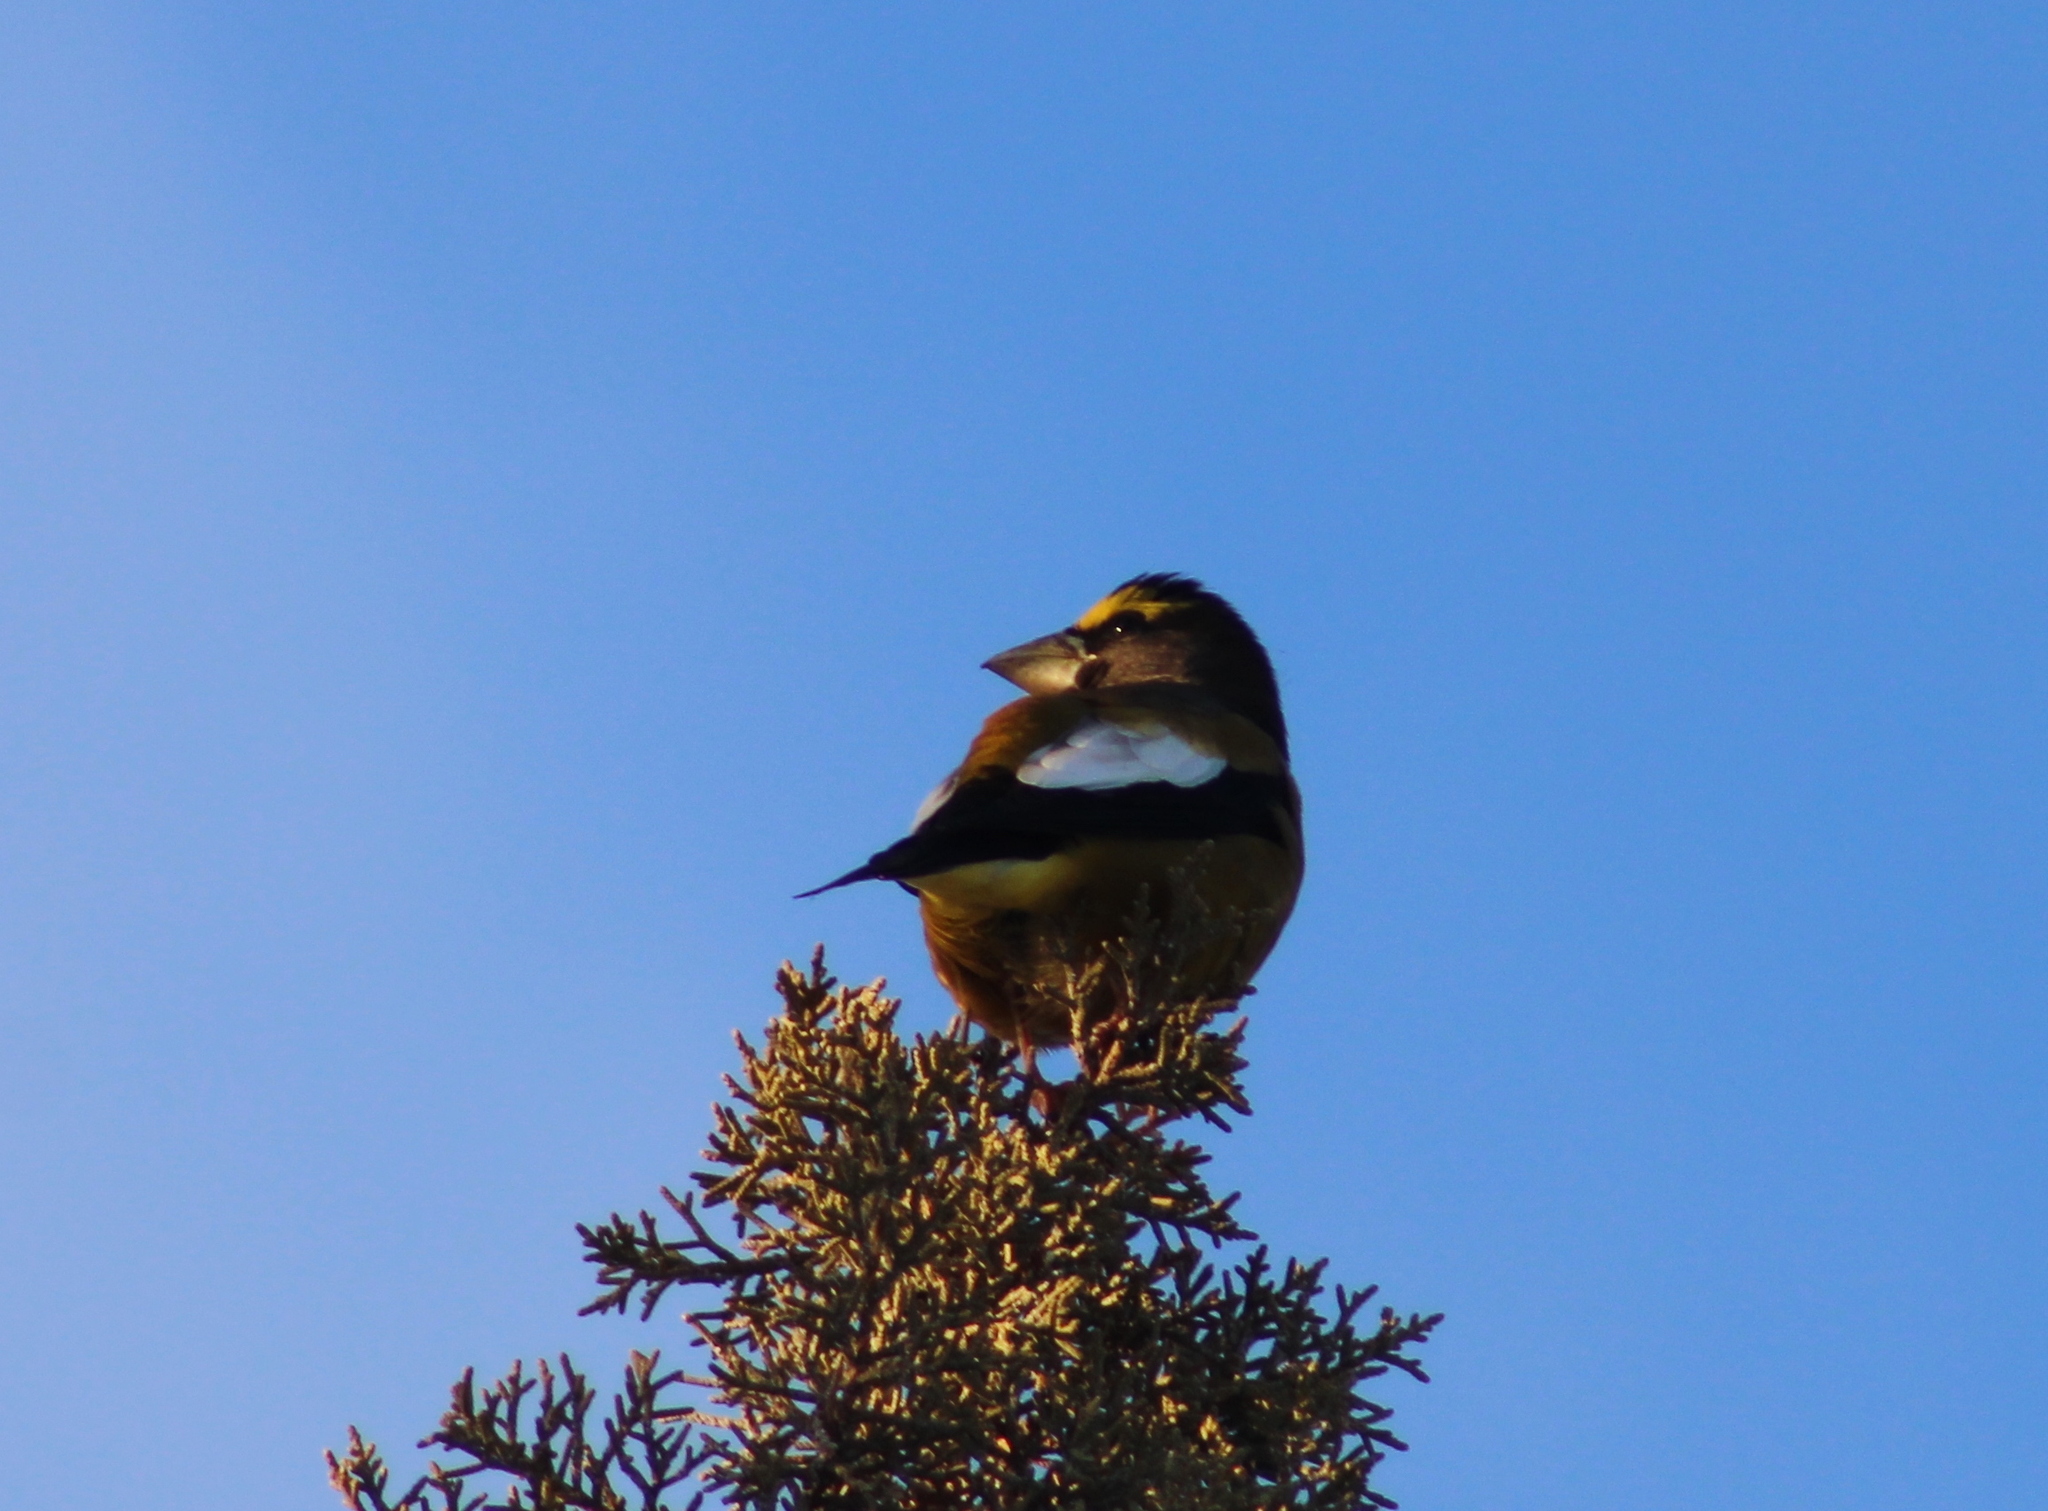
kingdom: Animalia
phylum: Chordata
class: Aves
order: Passeriformes
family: Fringillidae
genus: Hesperiphona
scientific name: Hesperiphona vespertina
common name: Evening grosbeak
